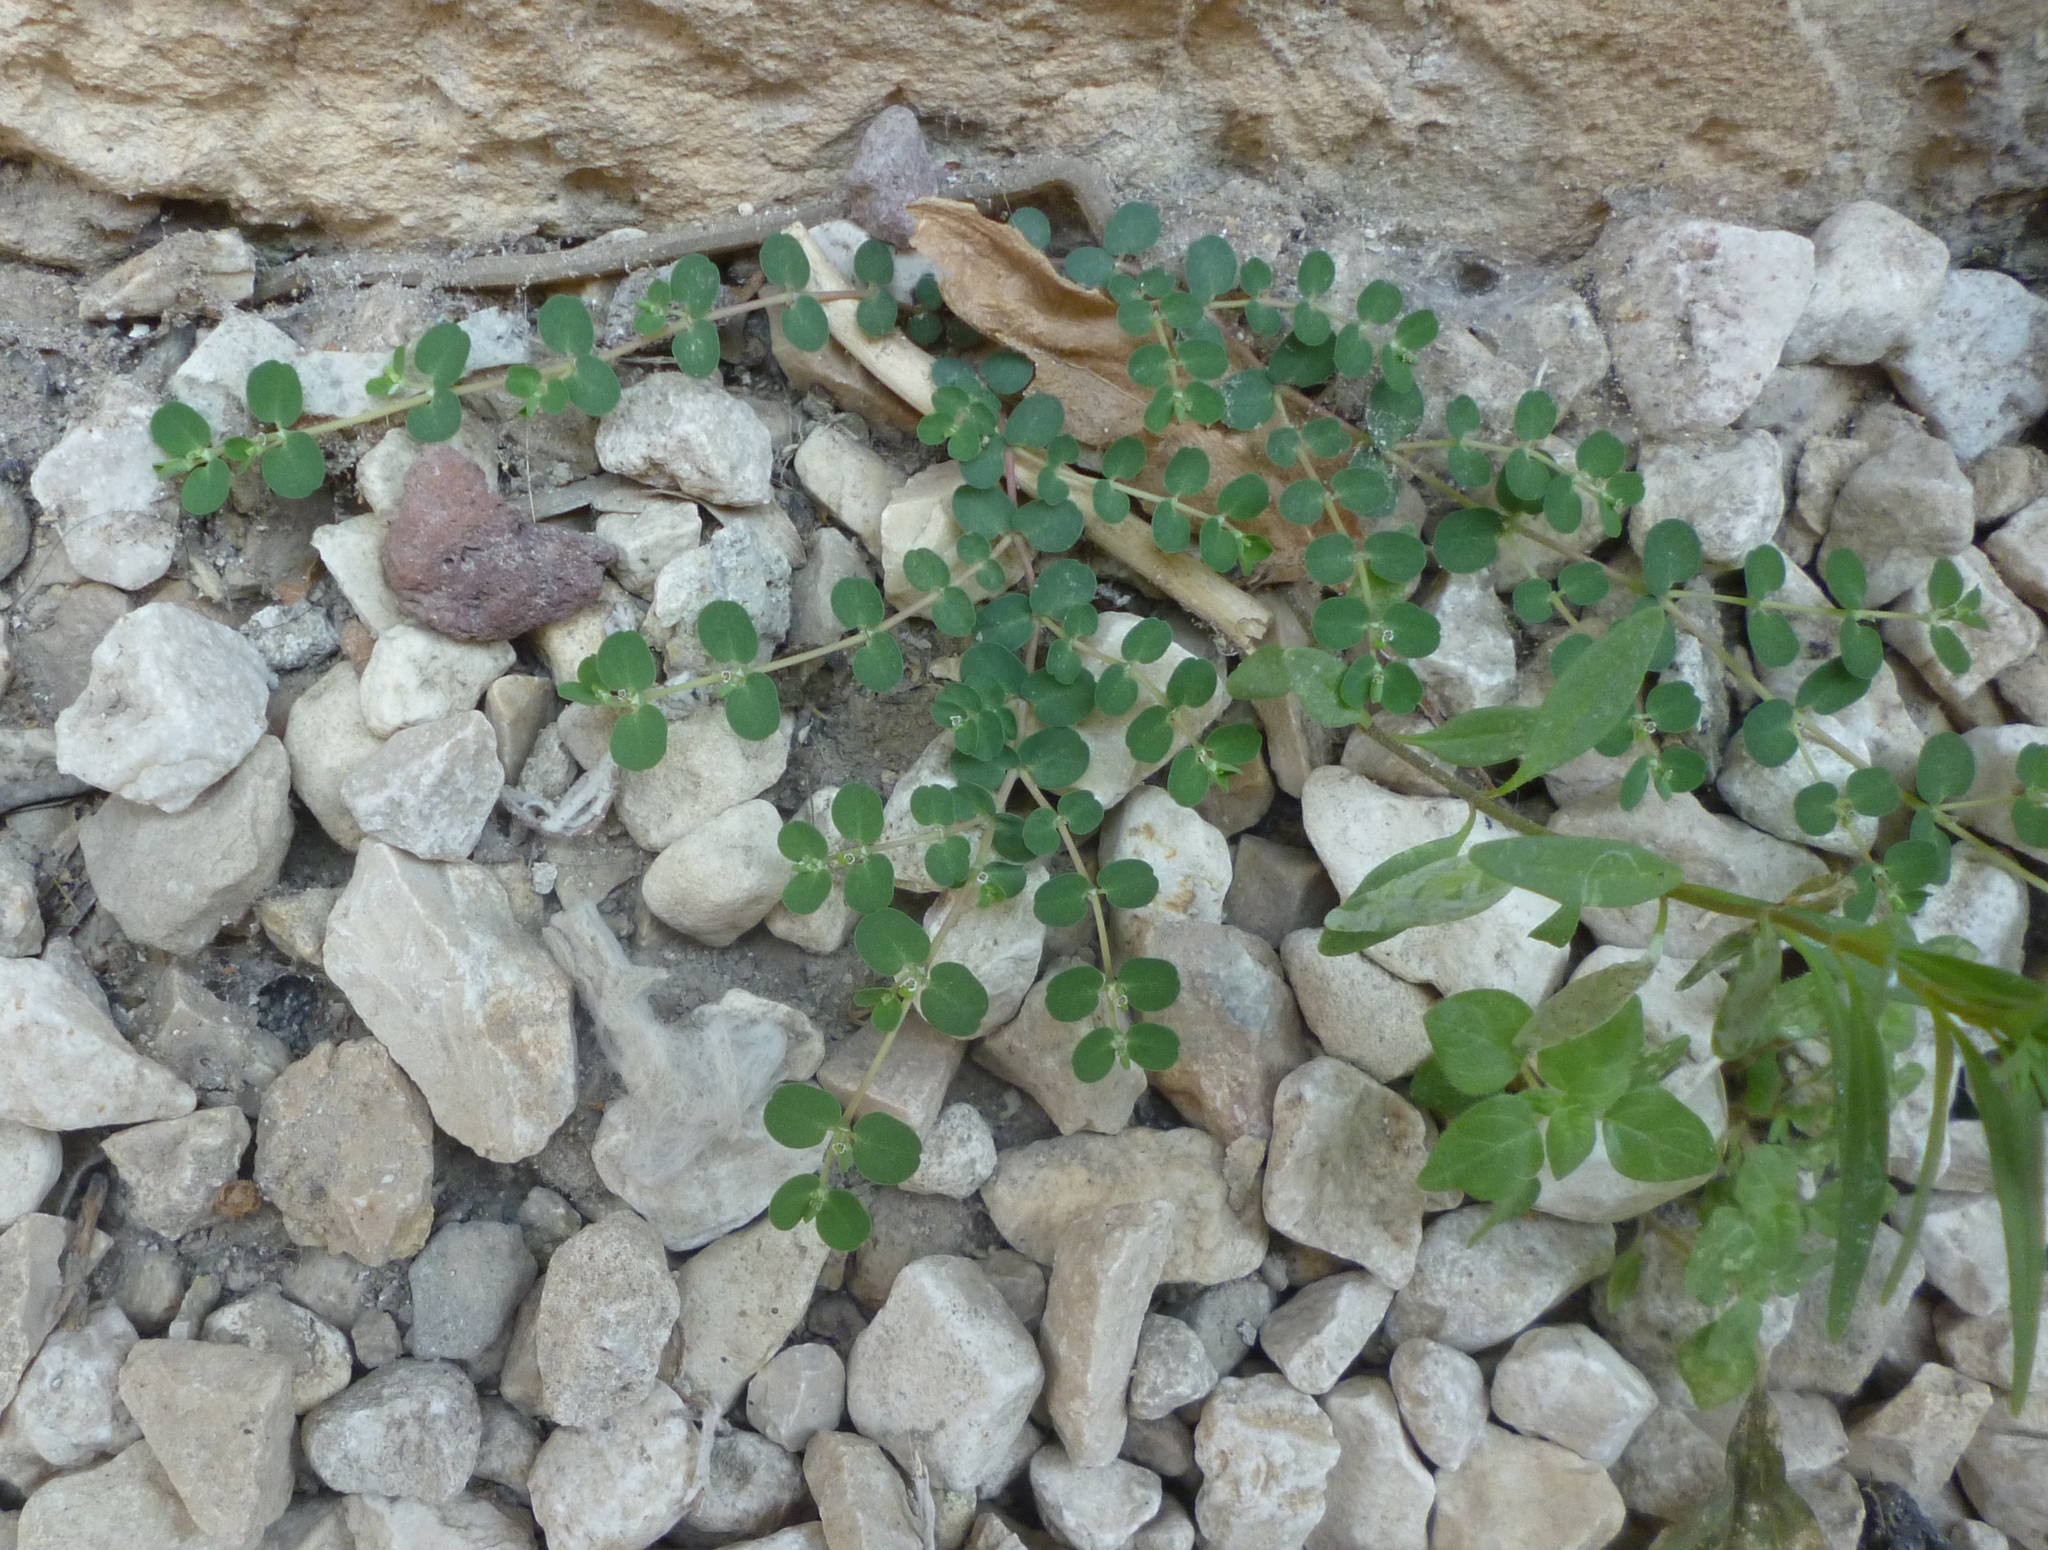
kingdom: Plantae
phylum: Tracheophyta
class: Magnoliopsida
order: Malpighiales
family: Euphorbiaceae
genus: Euphorbia
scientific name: Euphorbia serpens
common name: Matted sandmat
